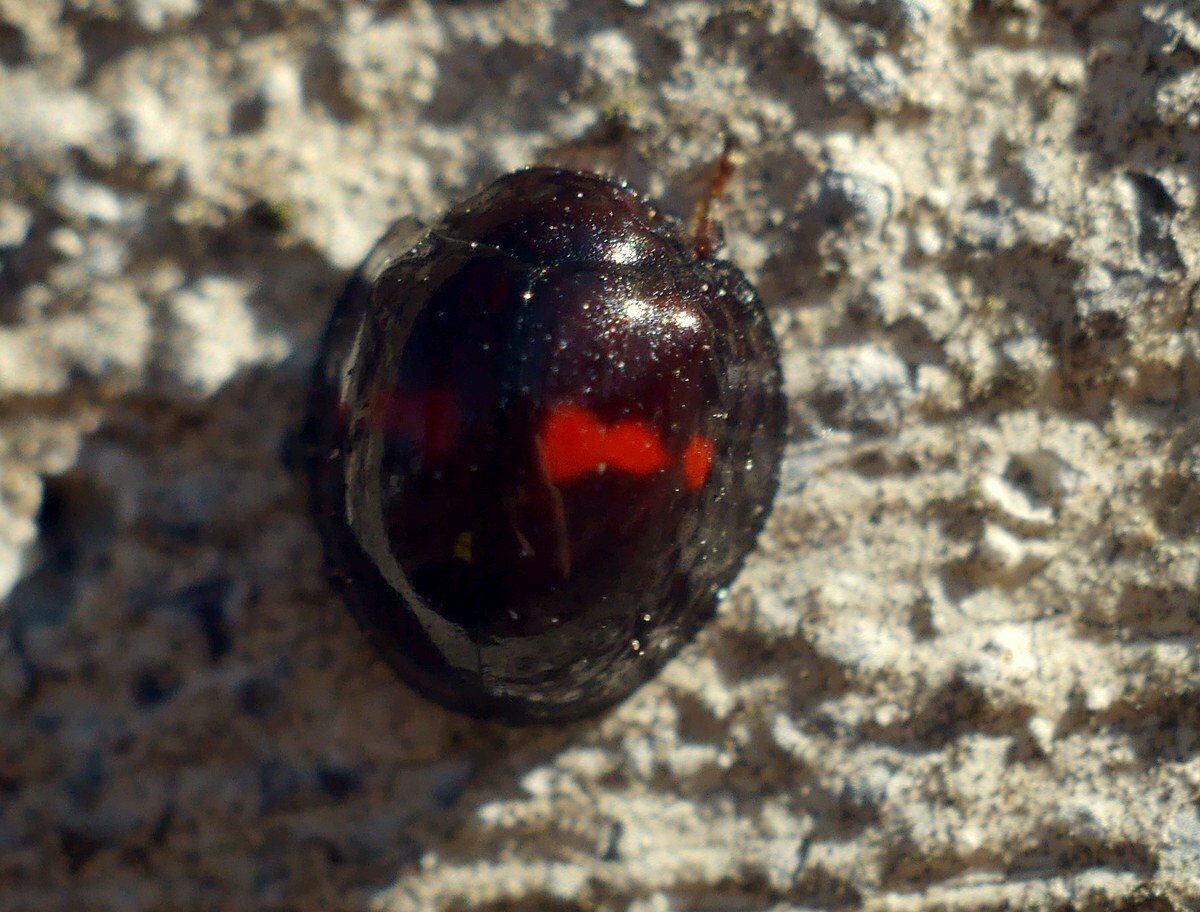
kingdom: Animalia
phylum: Arthropoda
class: Insecta
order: Coleoptera
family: Coccinellidae
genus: Chilocorus
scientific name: Chilocorus bipustulatus
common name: Heather ladybird
